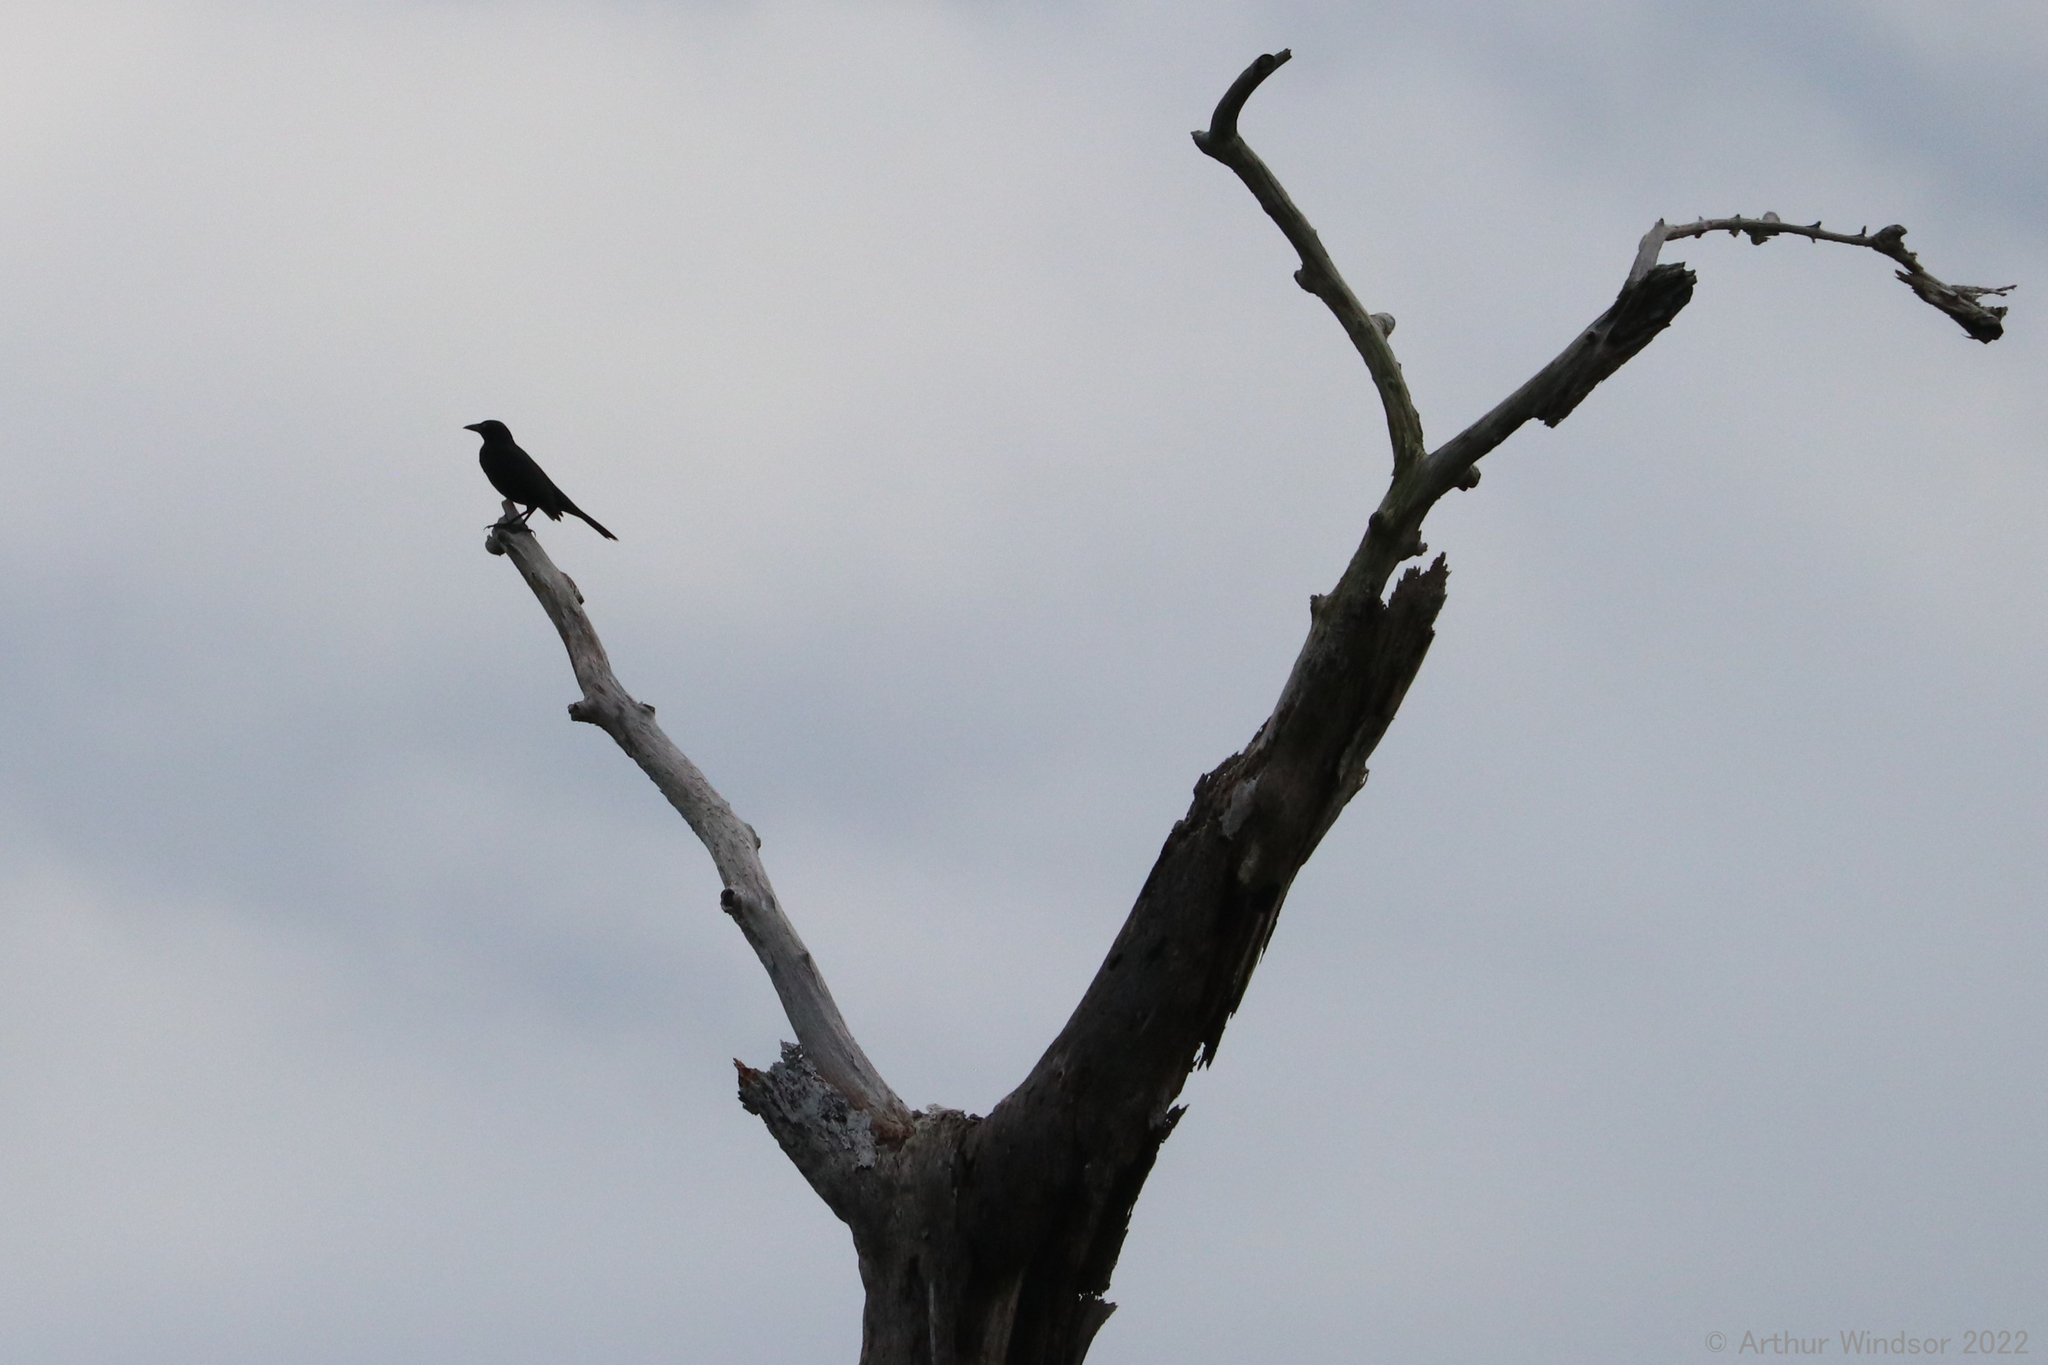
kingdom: Animalia
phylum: Chordata
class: Aves
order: Passeriformes
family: Icteridae
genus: Quiscalus
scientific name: Quiscalus quiscula
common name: Common grackle
